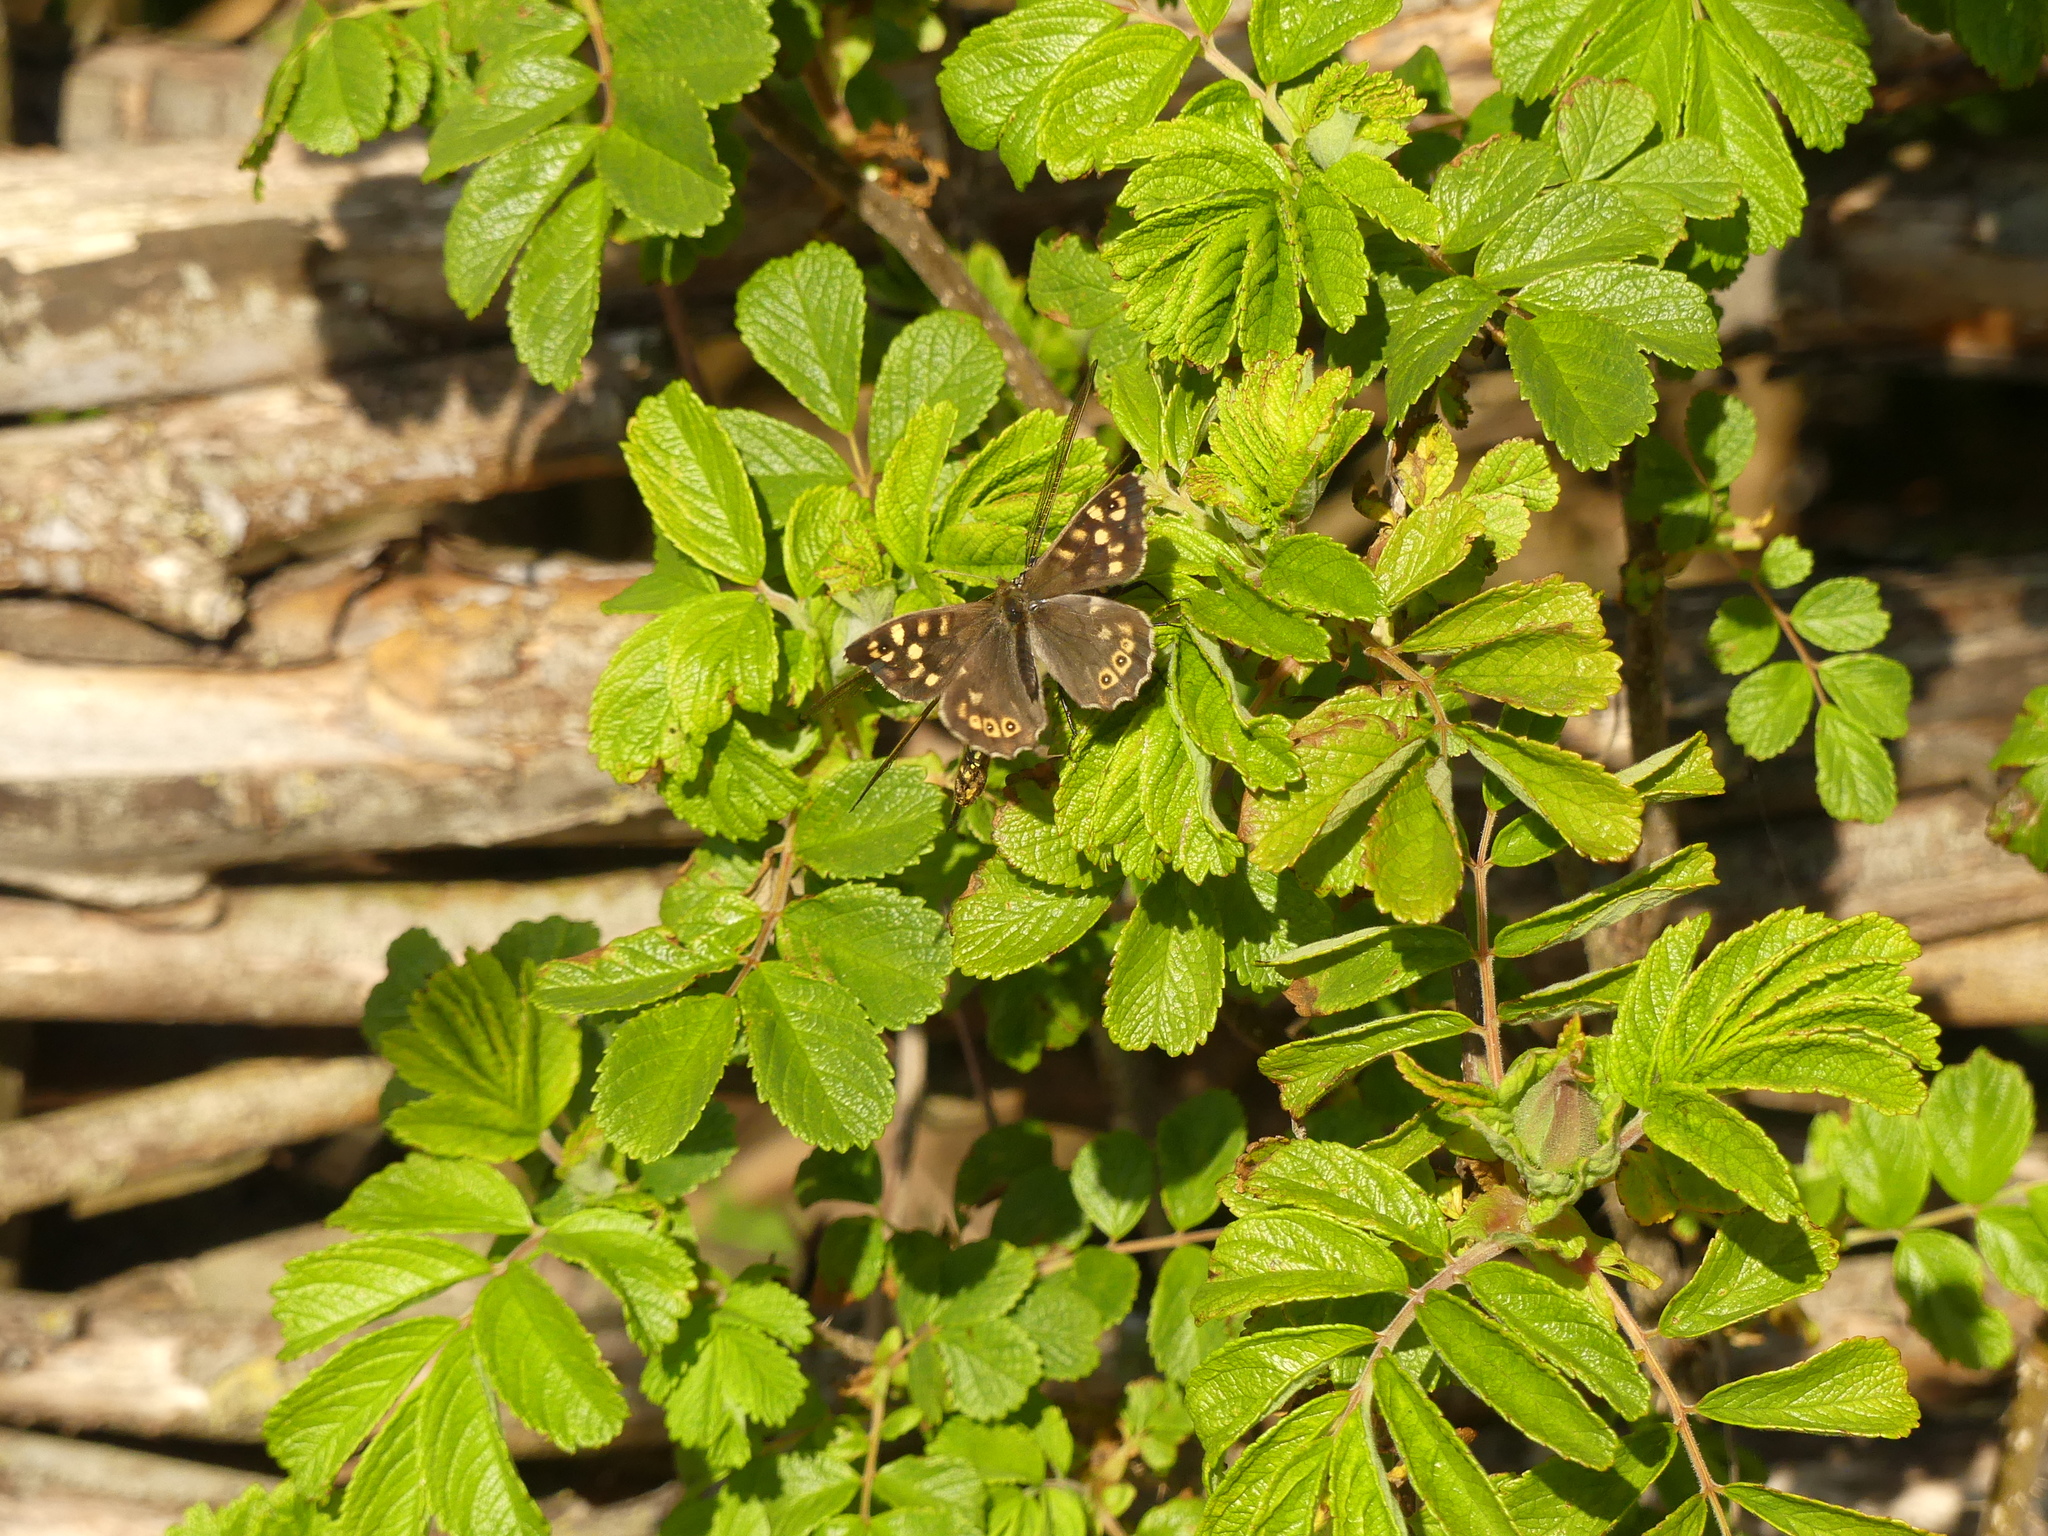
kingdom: Animalia
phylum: Arthropoda
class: Insecta
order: Lepidoptera
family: Nymphalidae
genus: Pararge
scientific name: Pararge aegeria
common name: Speckled wood
